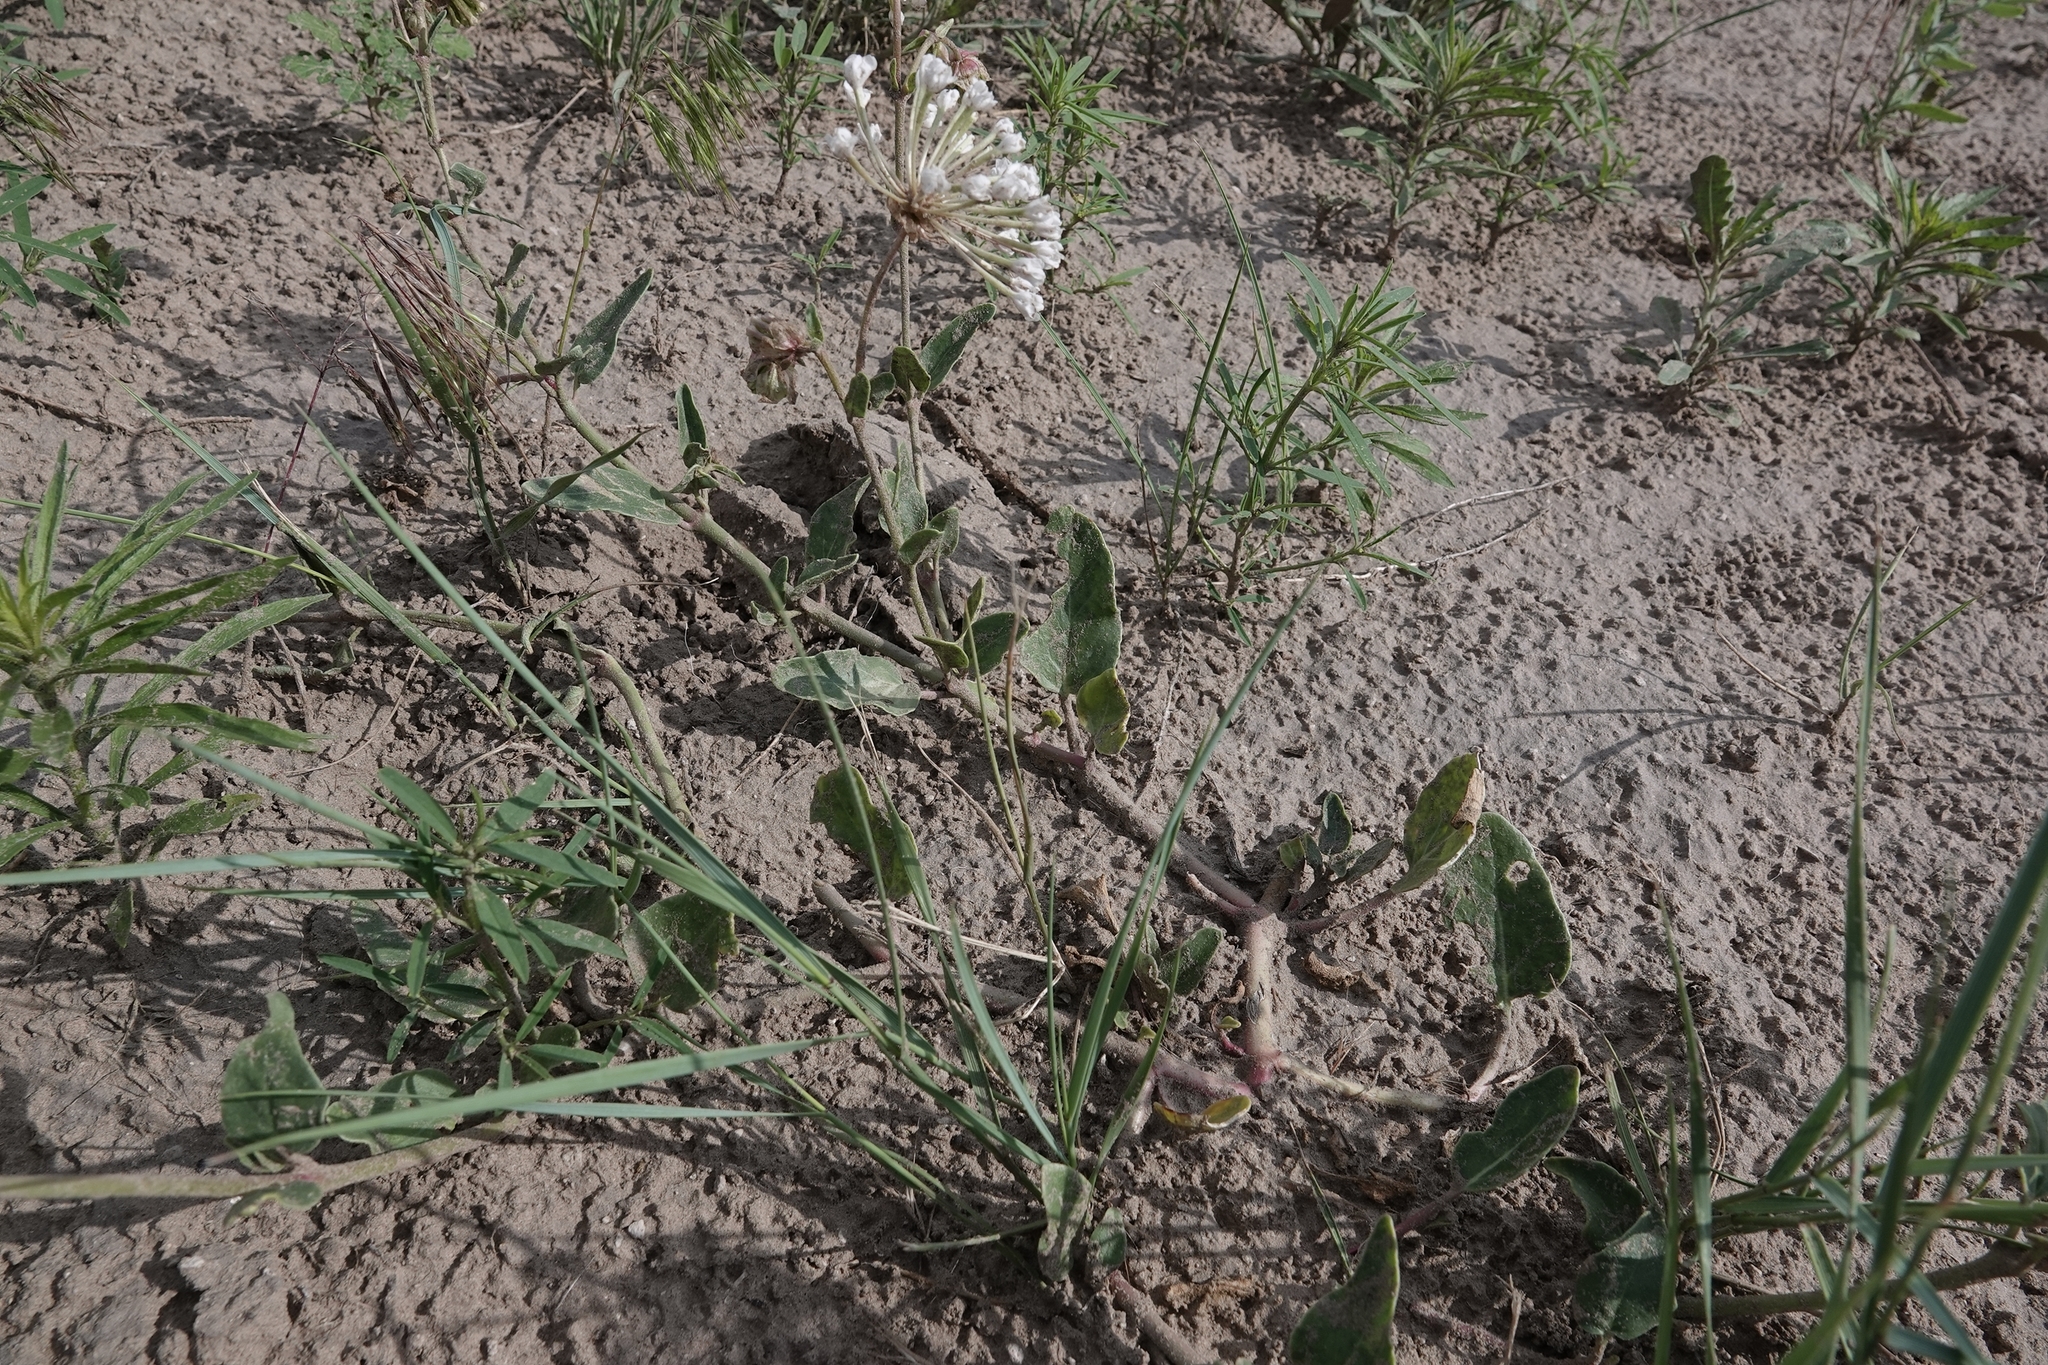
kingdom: Plantae
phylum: Tracheophyta
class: Magnoliopsida
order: Caryophyllales
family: Nyctaginaceae
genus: Abronia
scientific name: Abronia fragrans
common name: Fragrant sand-verbena
